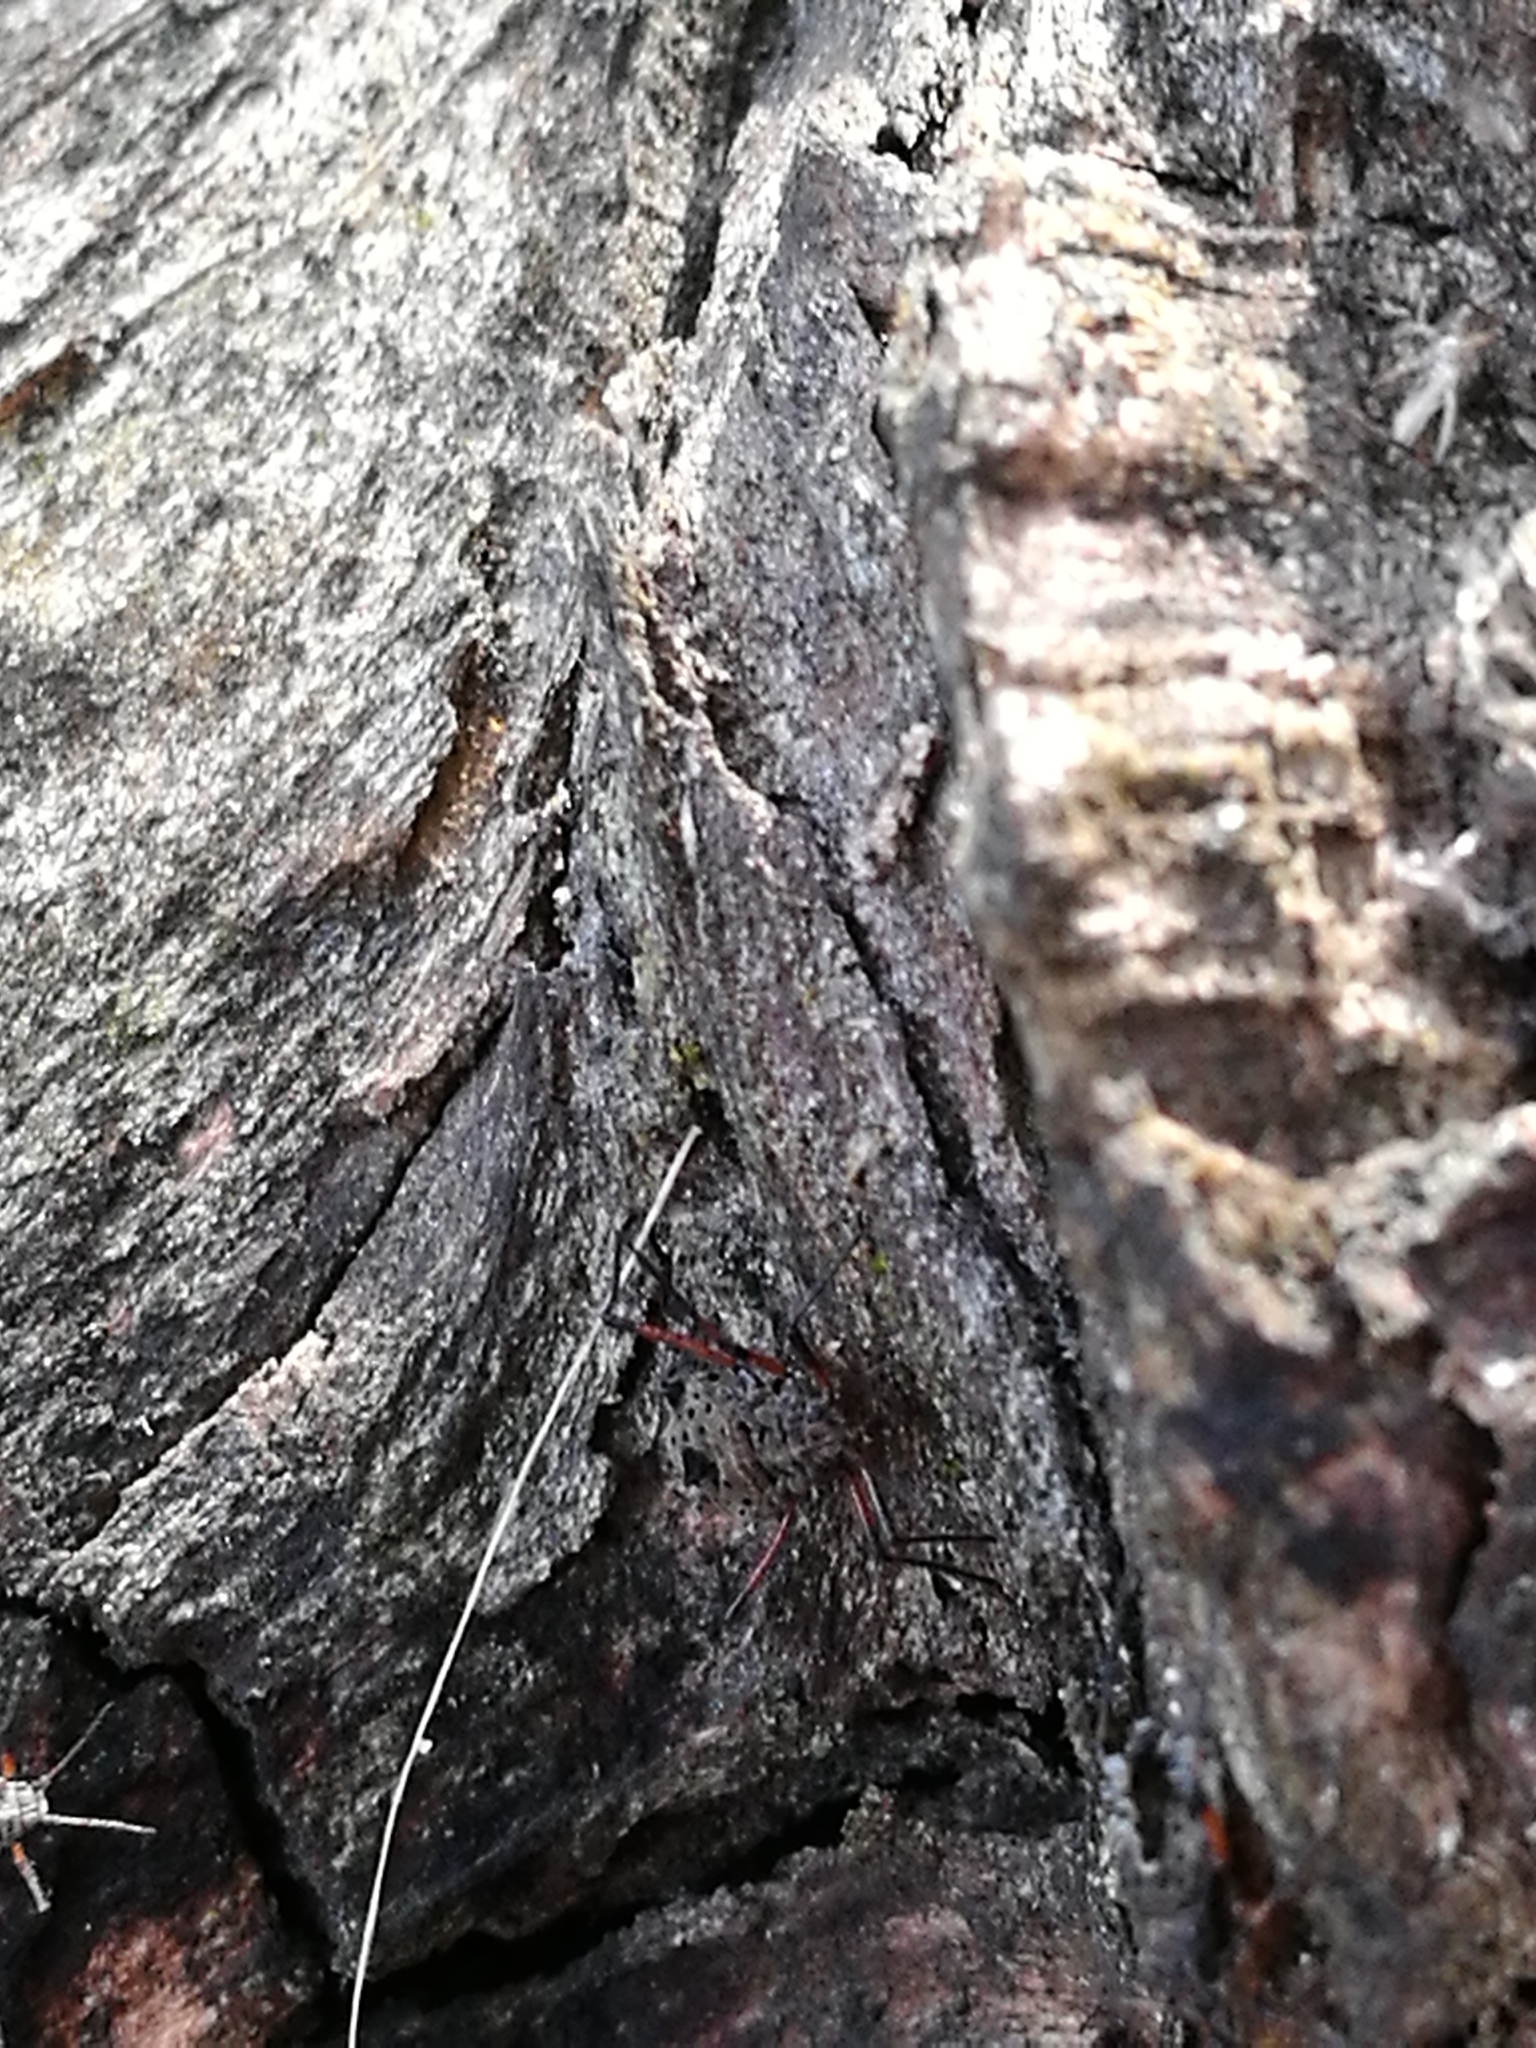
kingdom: Animalia
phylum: Arthropoda
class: Insecta
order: Hemiptera
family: Aphididae
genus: Tuberolachnus
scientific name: Tuberolachnus salignus
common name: Giant willow aphid
